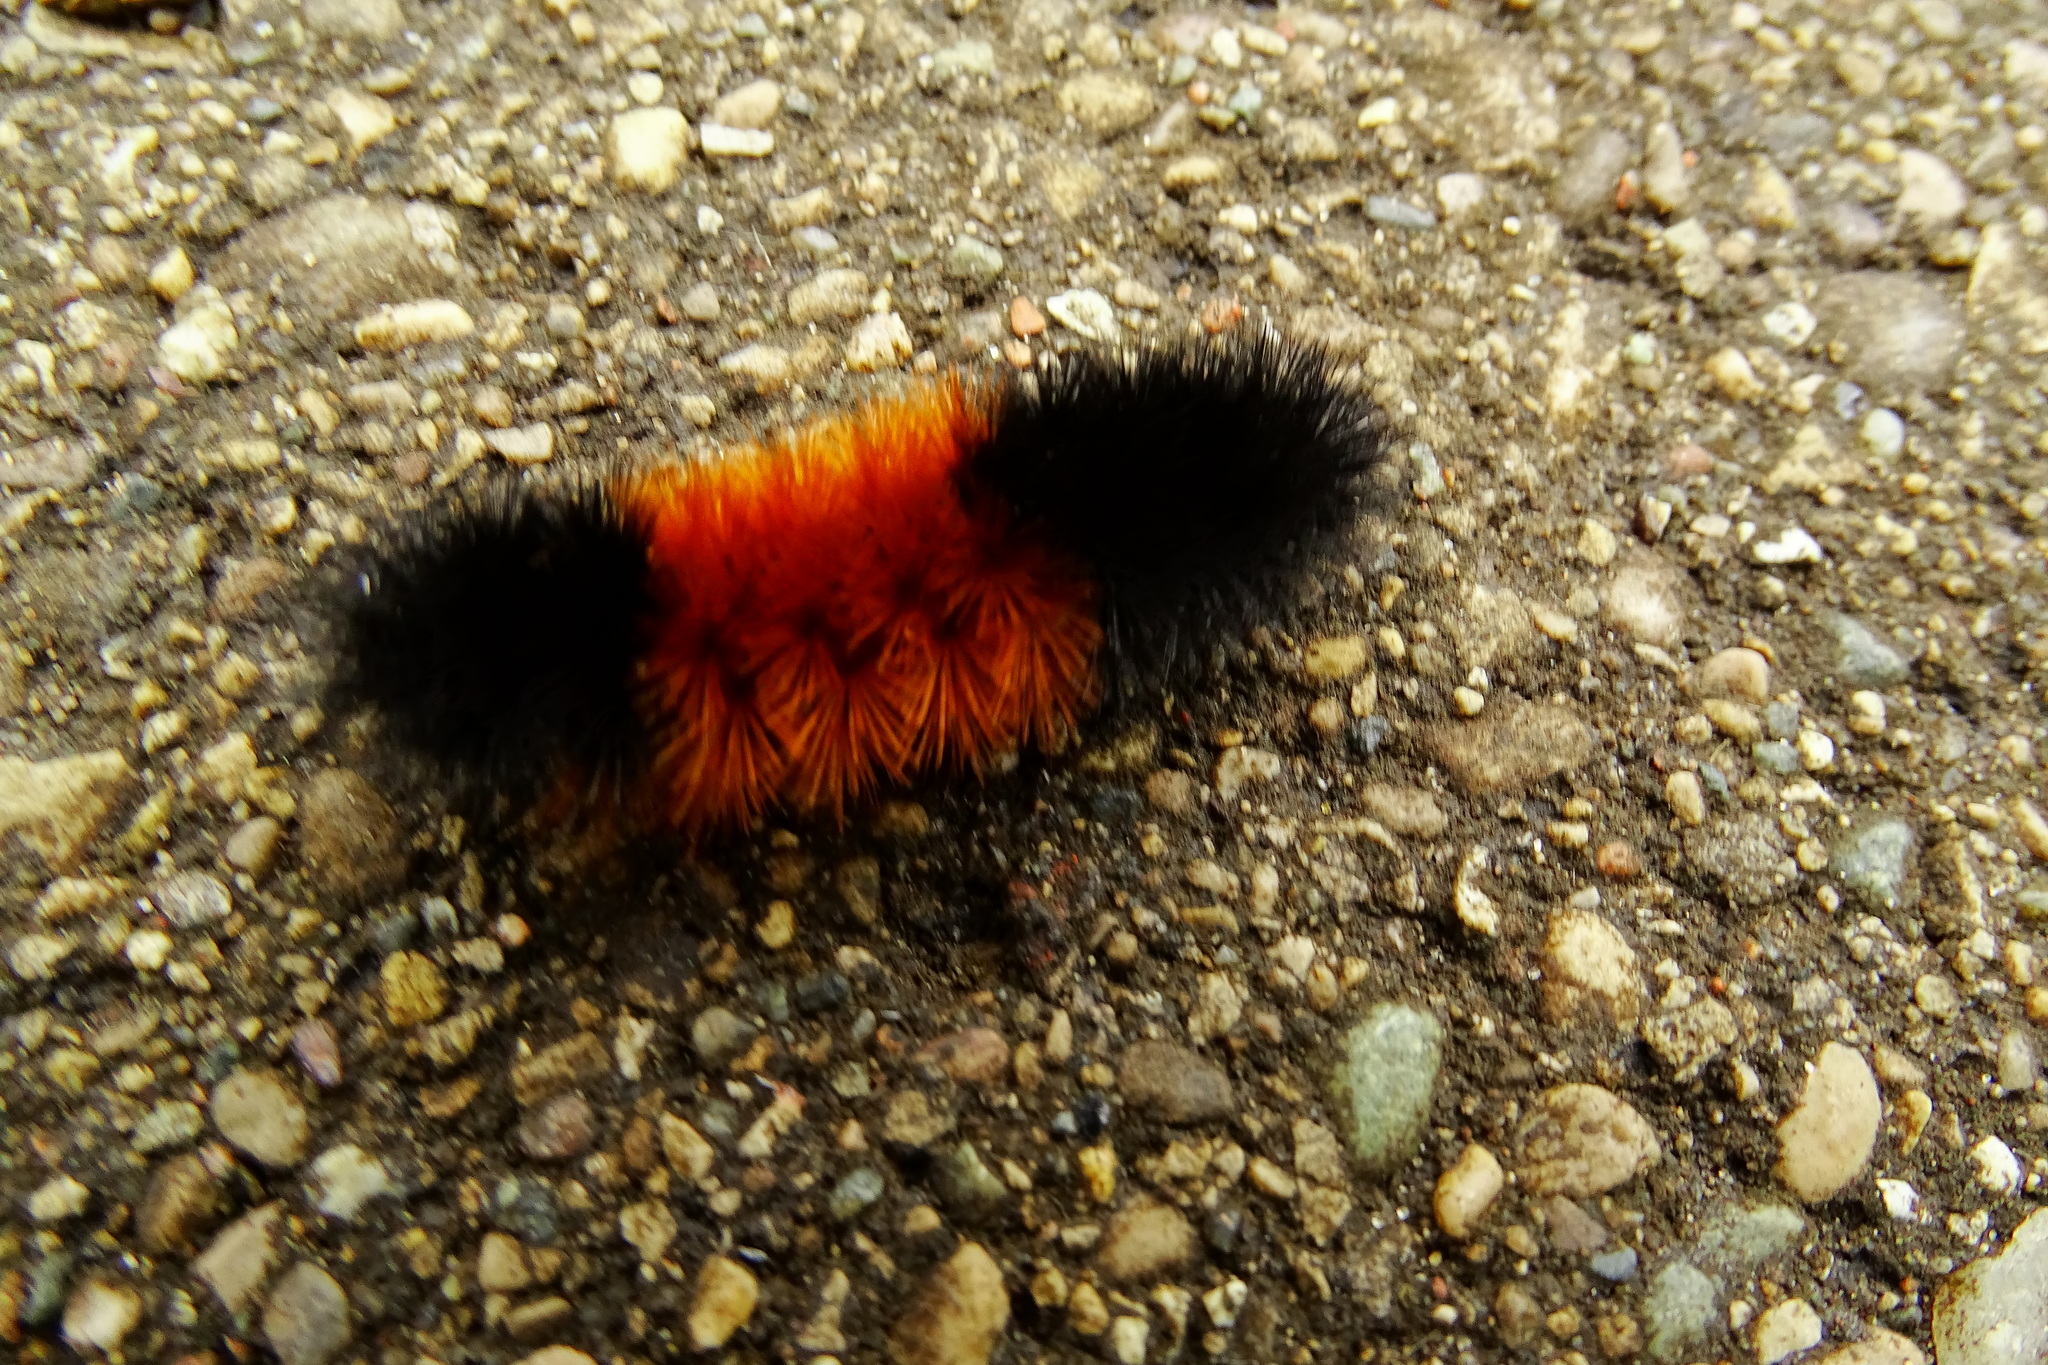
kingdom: Animalia
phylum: Arthropoda
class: Insecta
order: Lepidoptera
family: Erebidae
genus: Pyrrharctia
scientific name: Pyrrharctia isabella
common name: Isabella tiger moth
